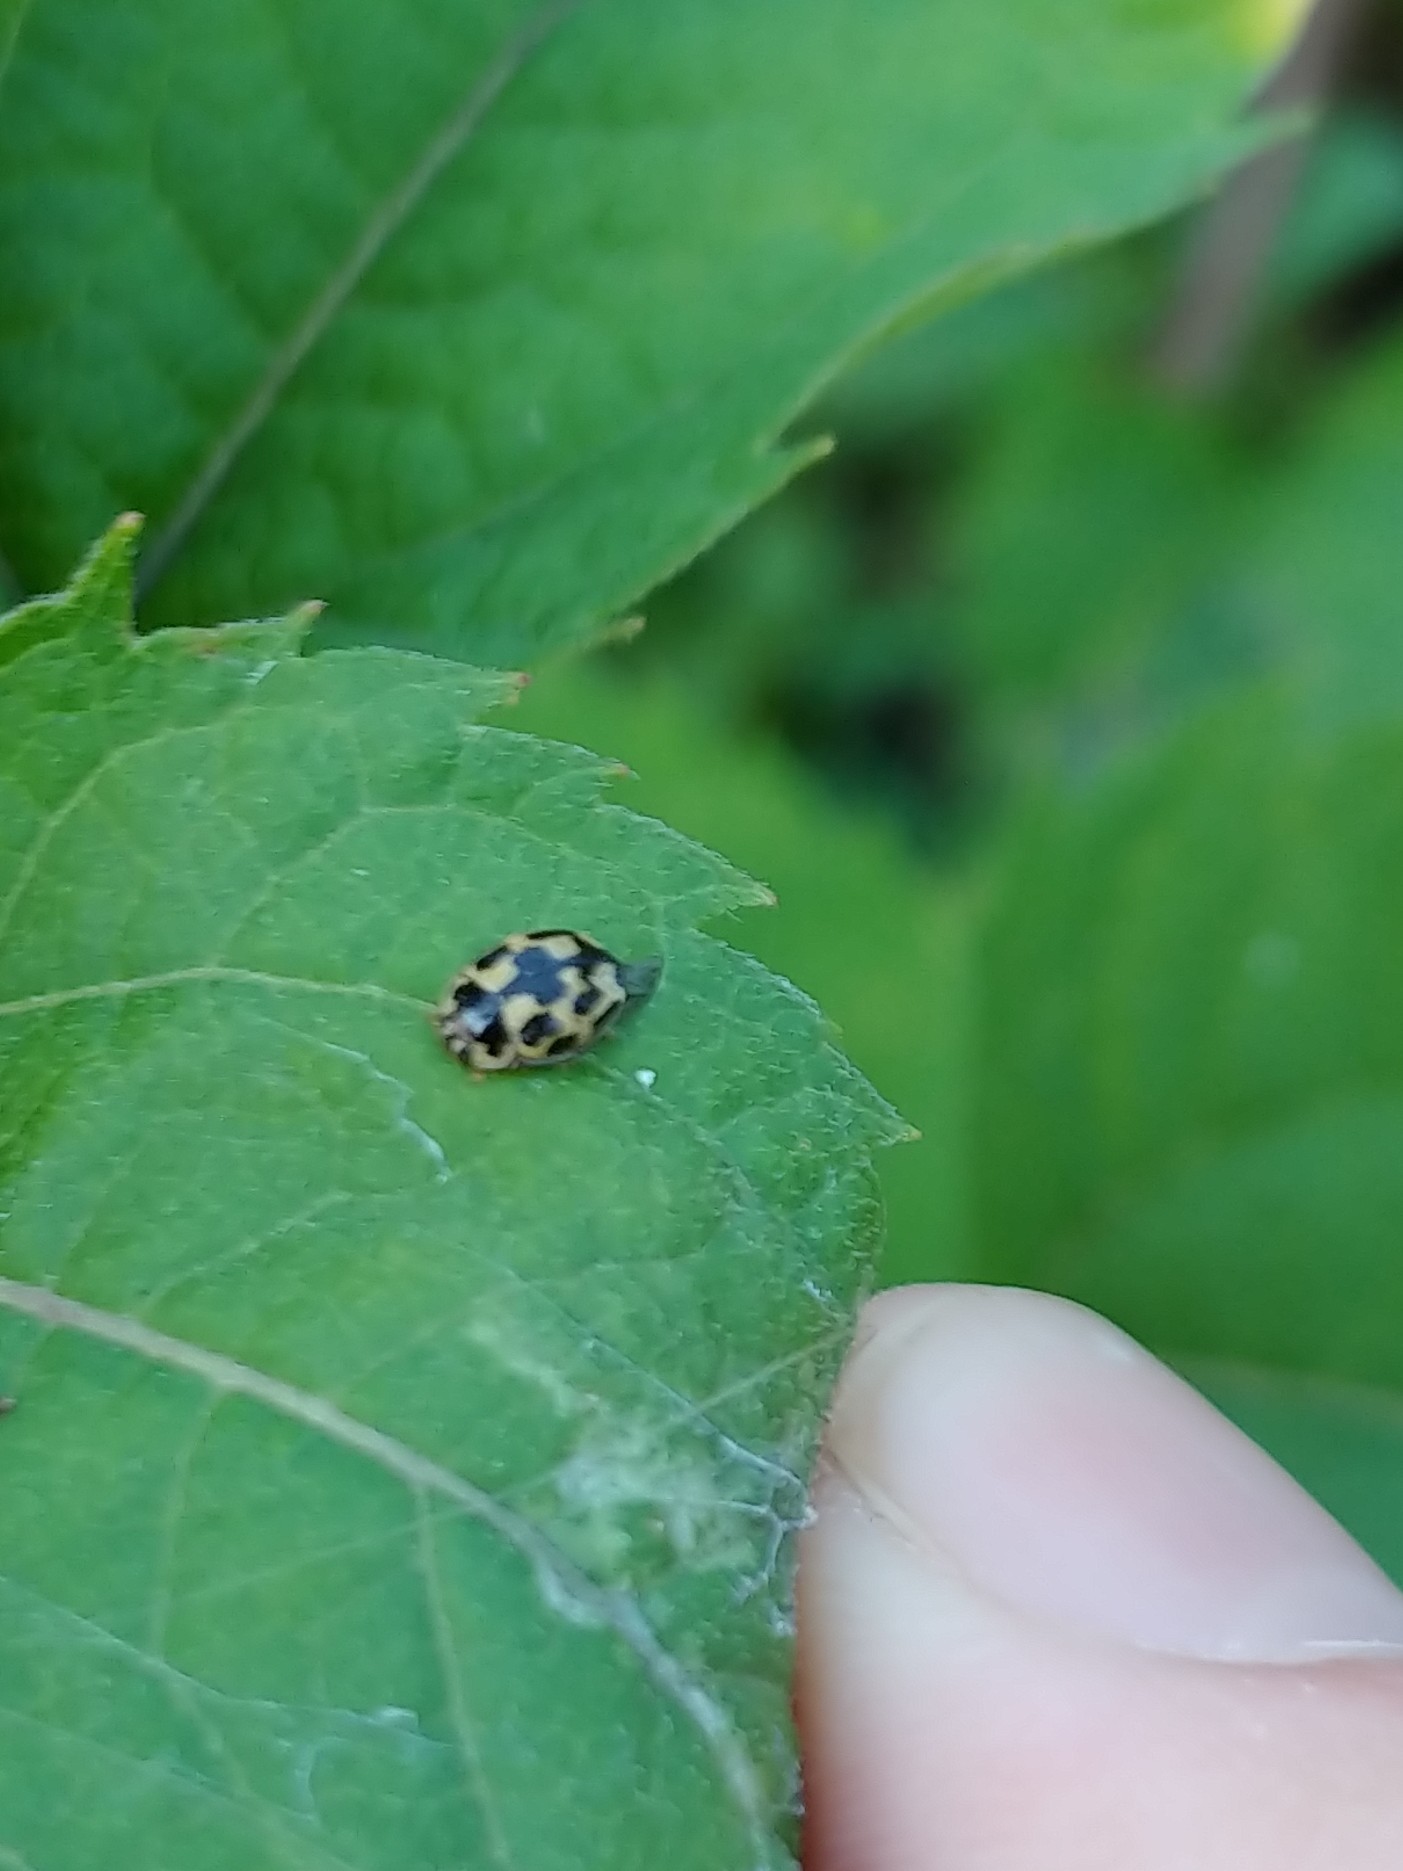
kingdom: Animalia
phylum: Arthropoda
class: Insecta
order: Coleoptera
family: Coccinellidae
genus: Propylaea
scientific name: Propylaea quatuordecimpunctata
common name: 14-spotted ladybird beetle
